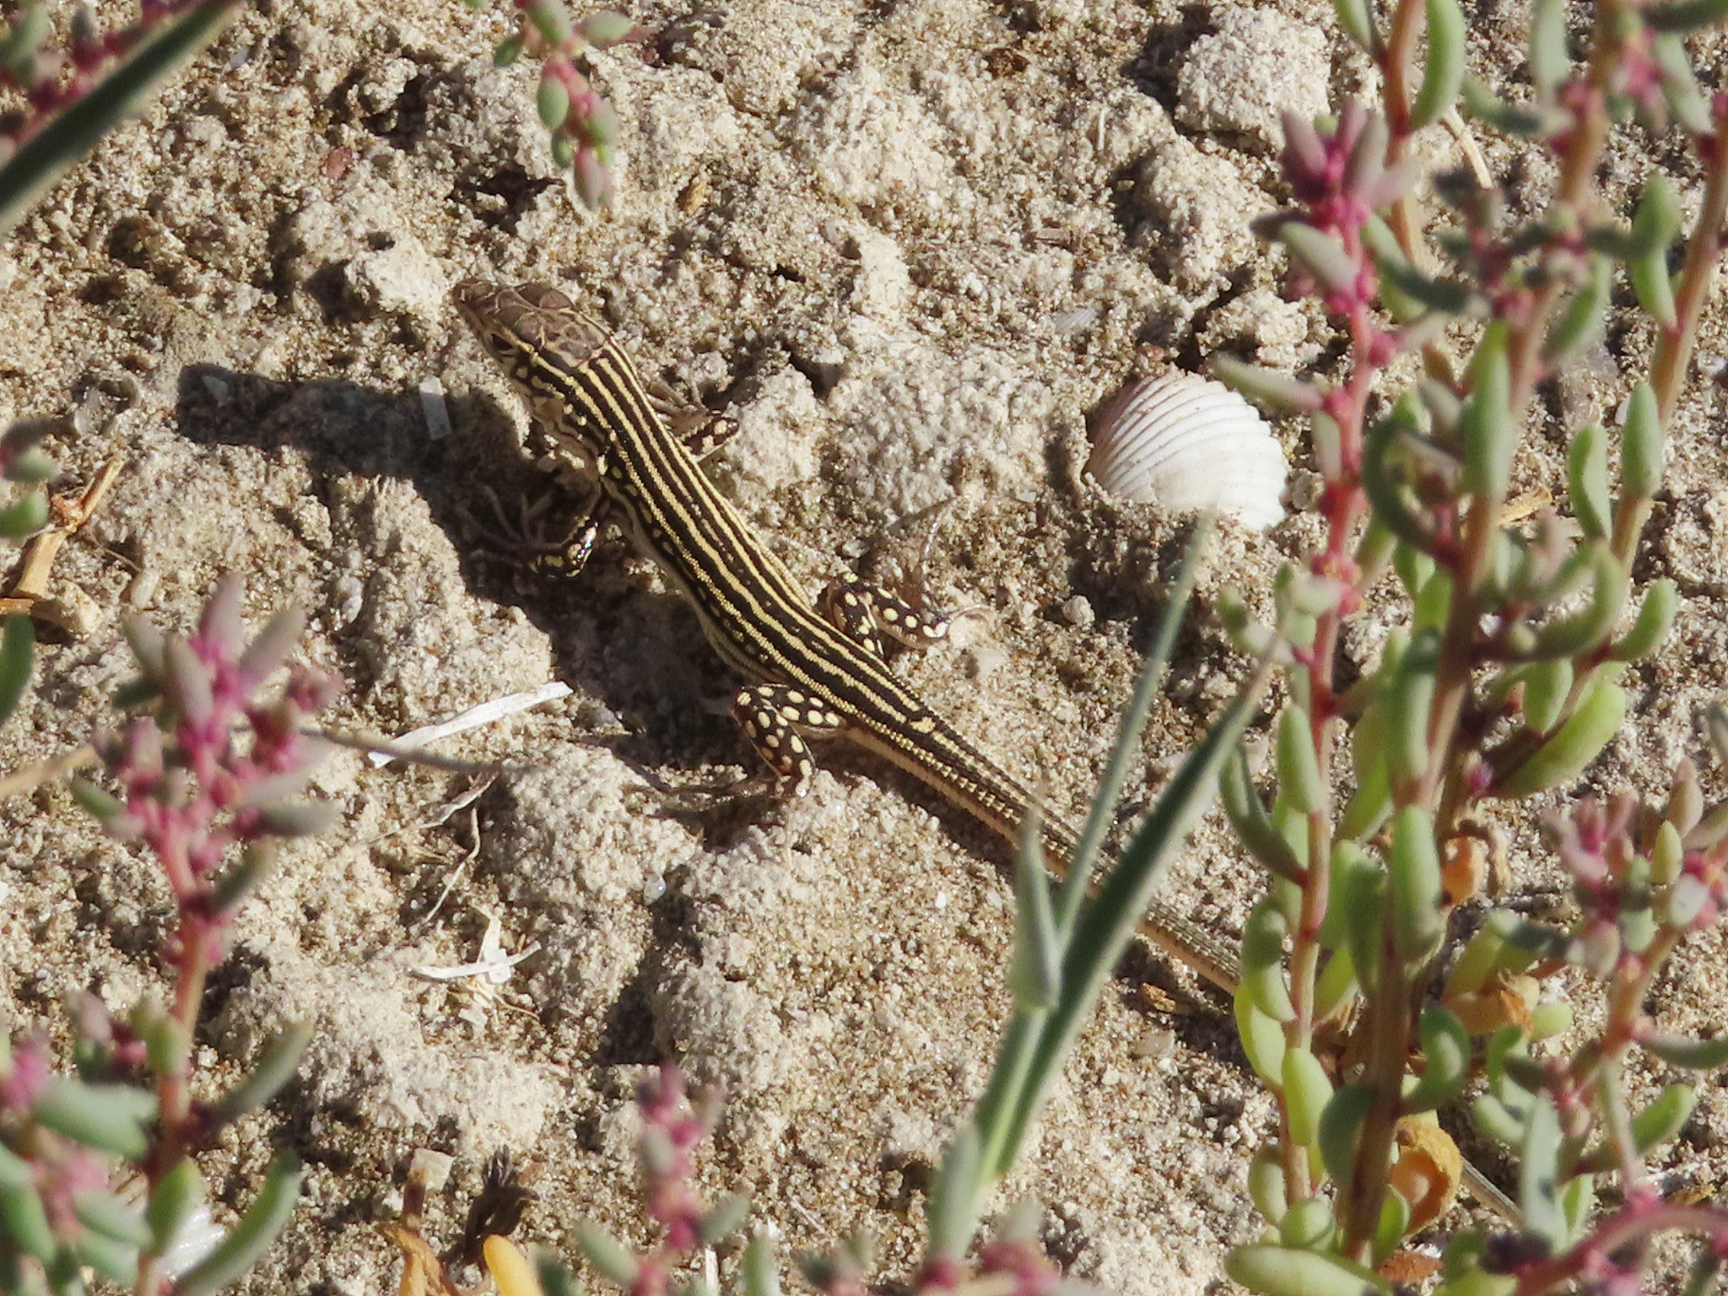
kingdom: Animalia
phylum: Chordata
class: Squamata
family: Lacertidae
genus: Eremias
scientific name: Eremias velox
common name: Central asian racerunner
